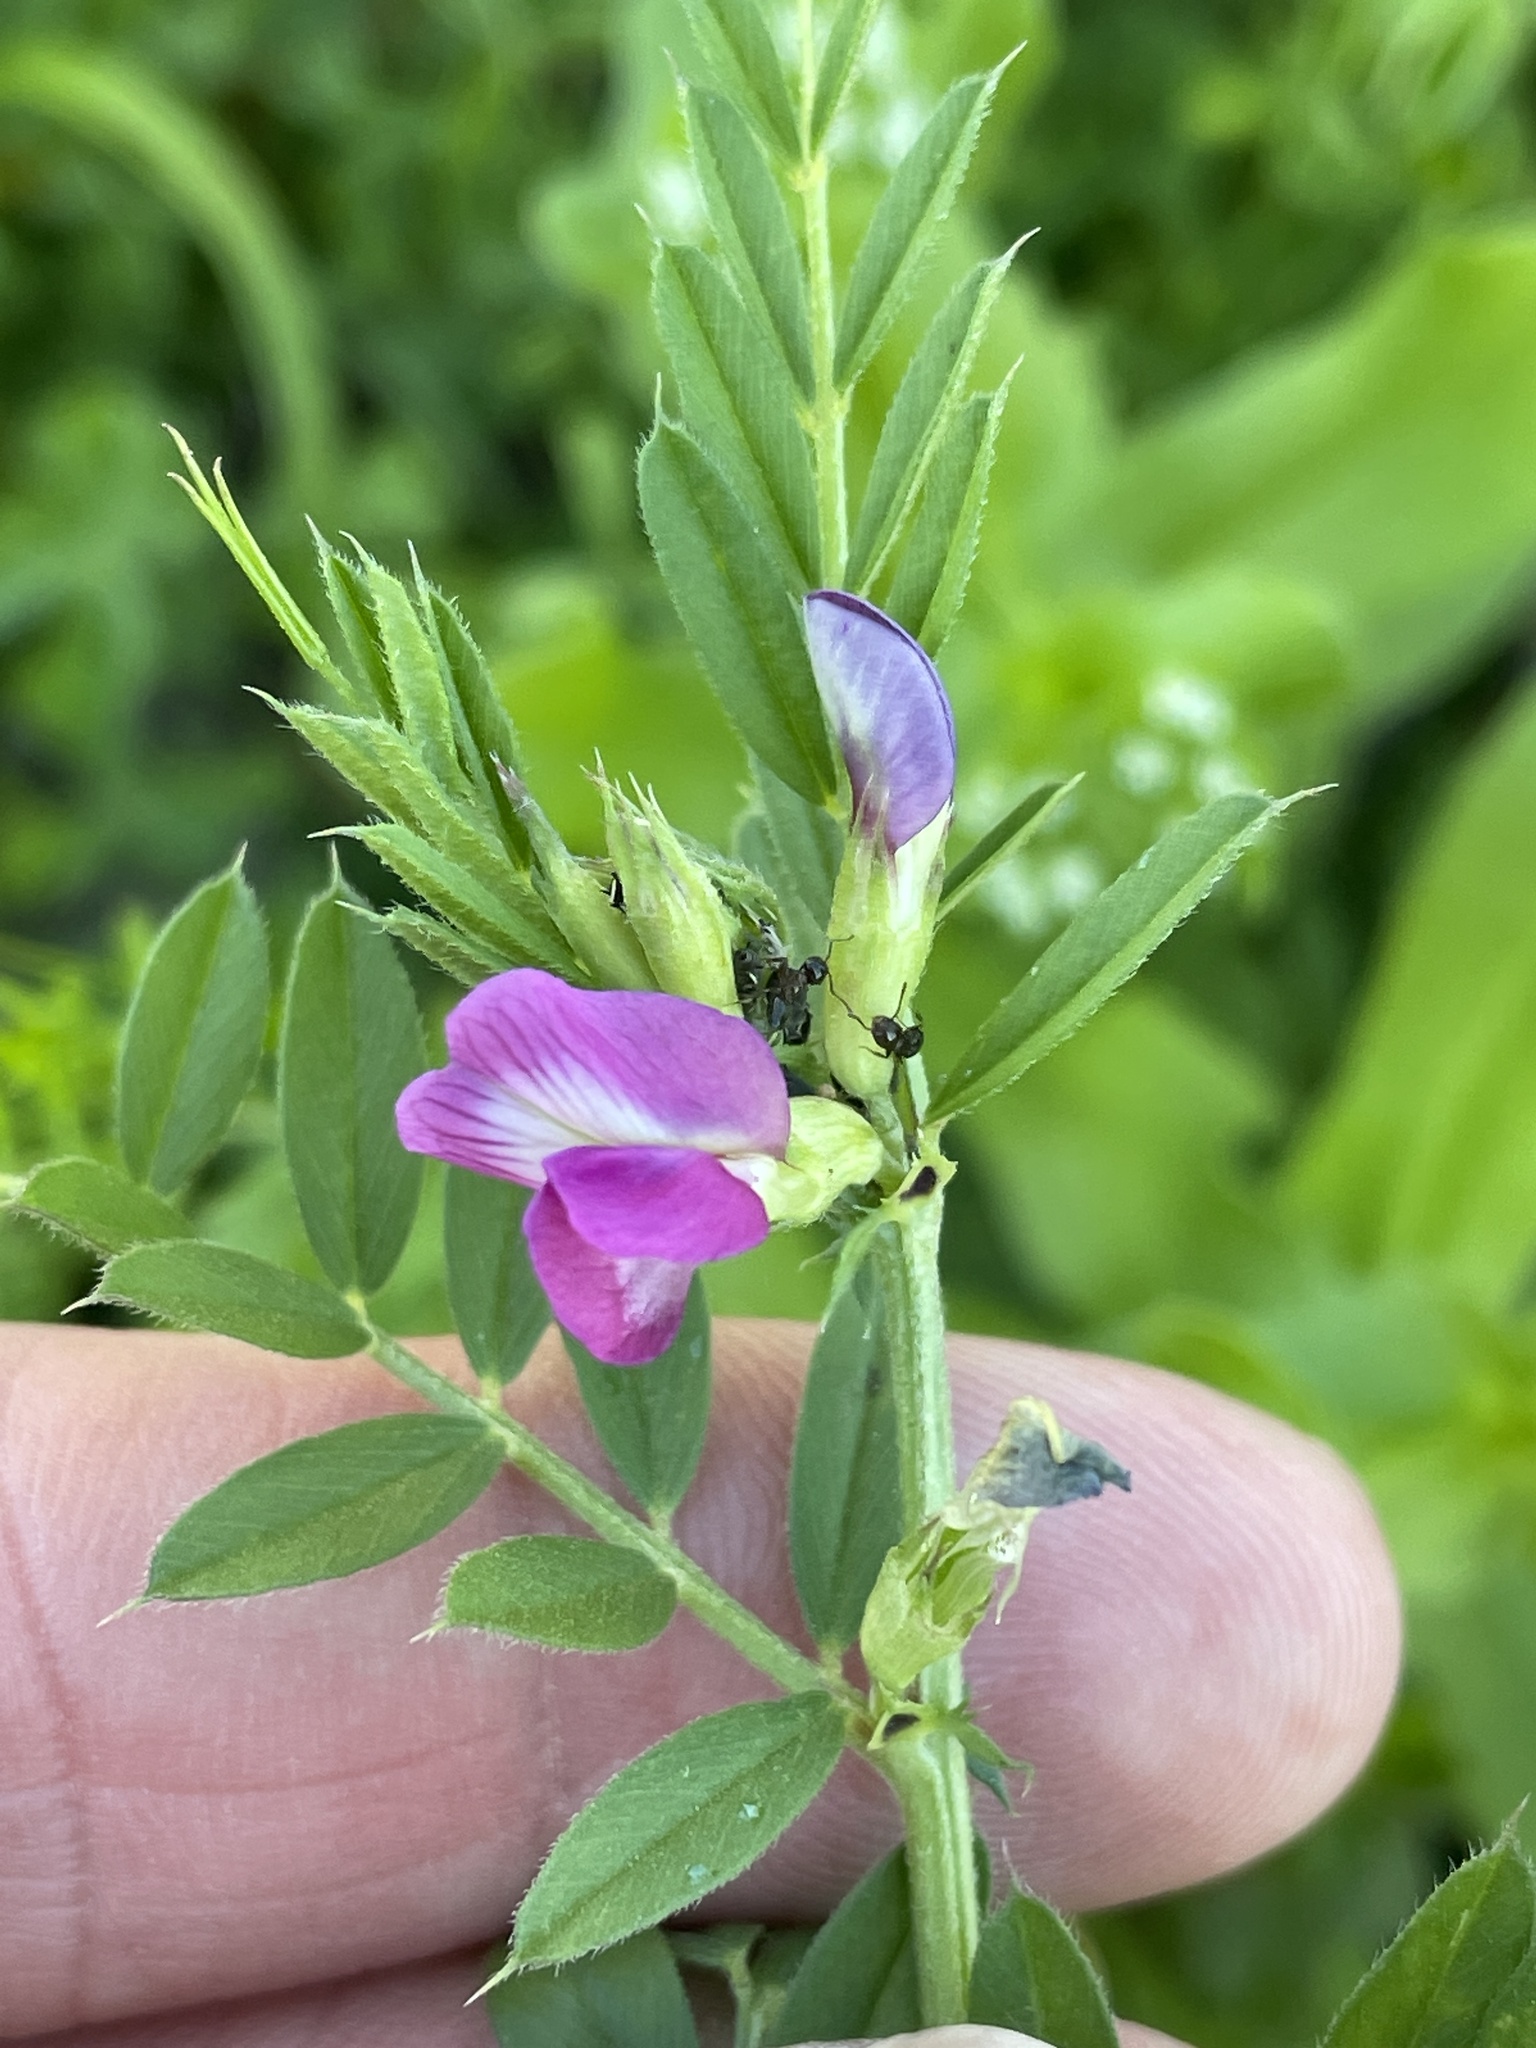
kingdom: Plantae
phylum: Tracheophyta
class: Magnoliopsida
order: Fabales
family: Fabaceae
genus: Vicia
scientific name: Vicia sativa
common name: Garden vetch
